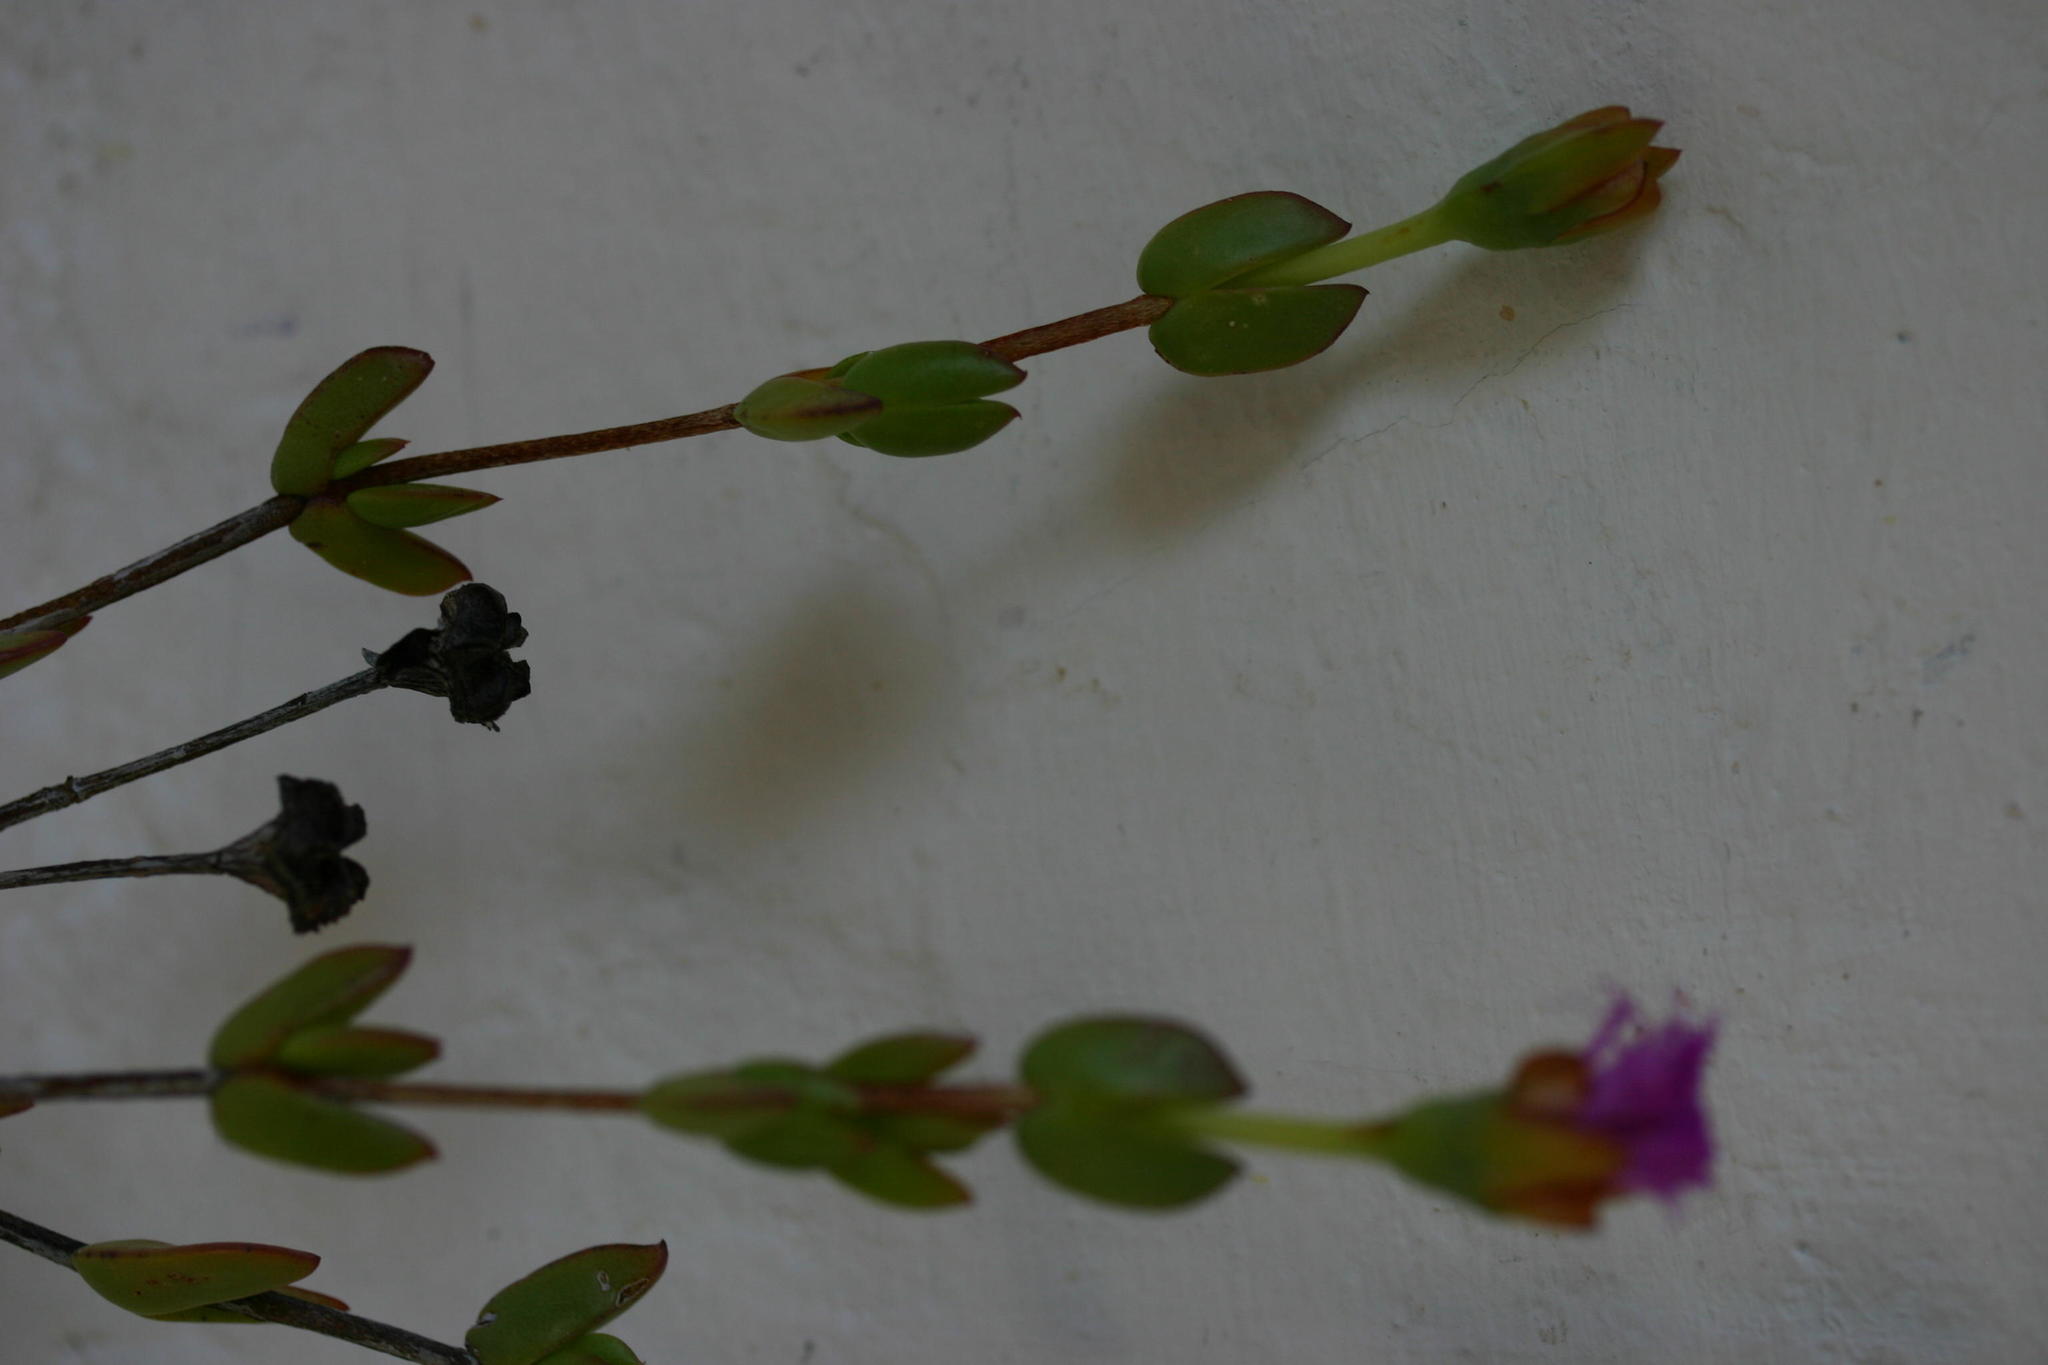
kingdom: Plantae
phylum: Tracheophyta
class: Magnoliopsida
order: Caryophyllales
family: Aizoaceae
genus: Erepsia
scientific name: Erepsia pentagona
